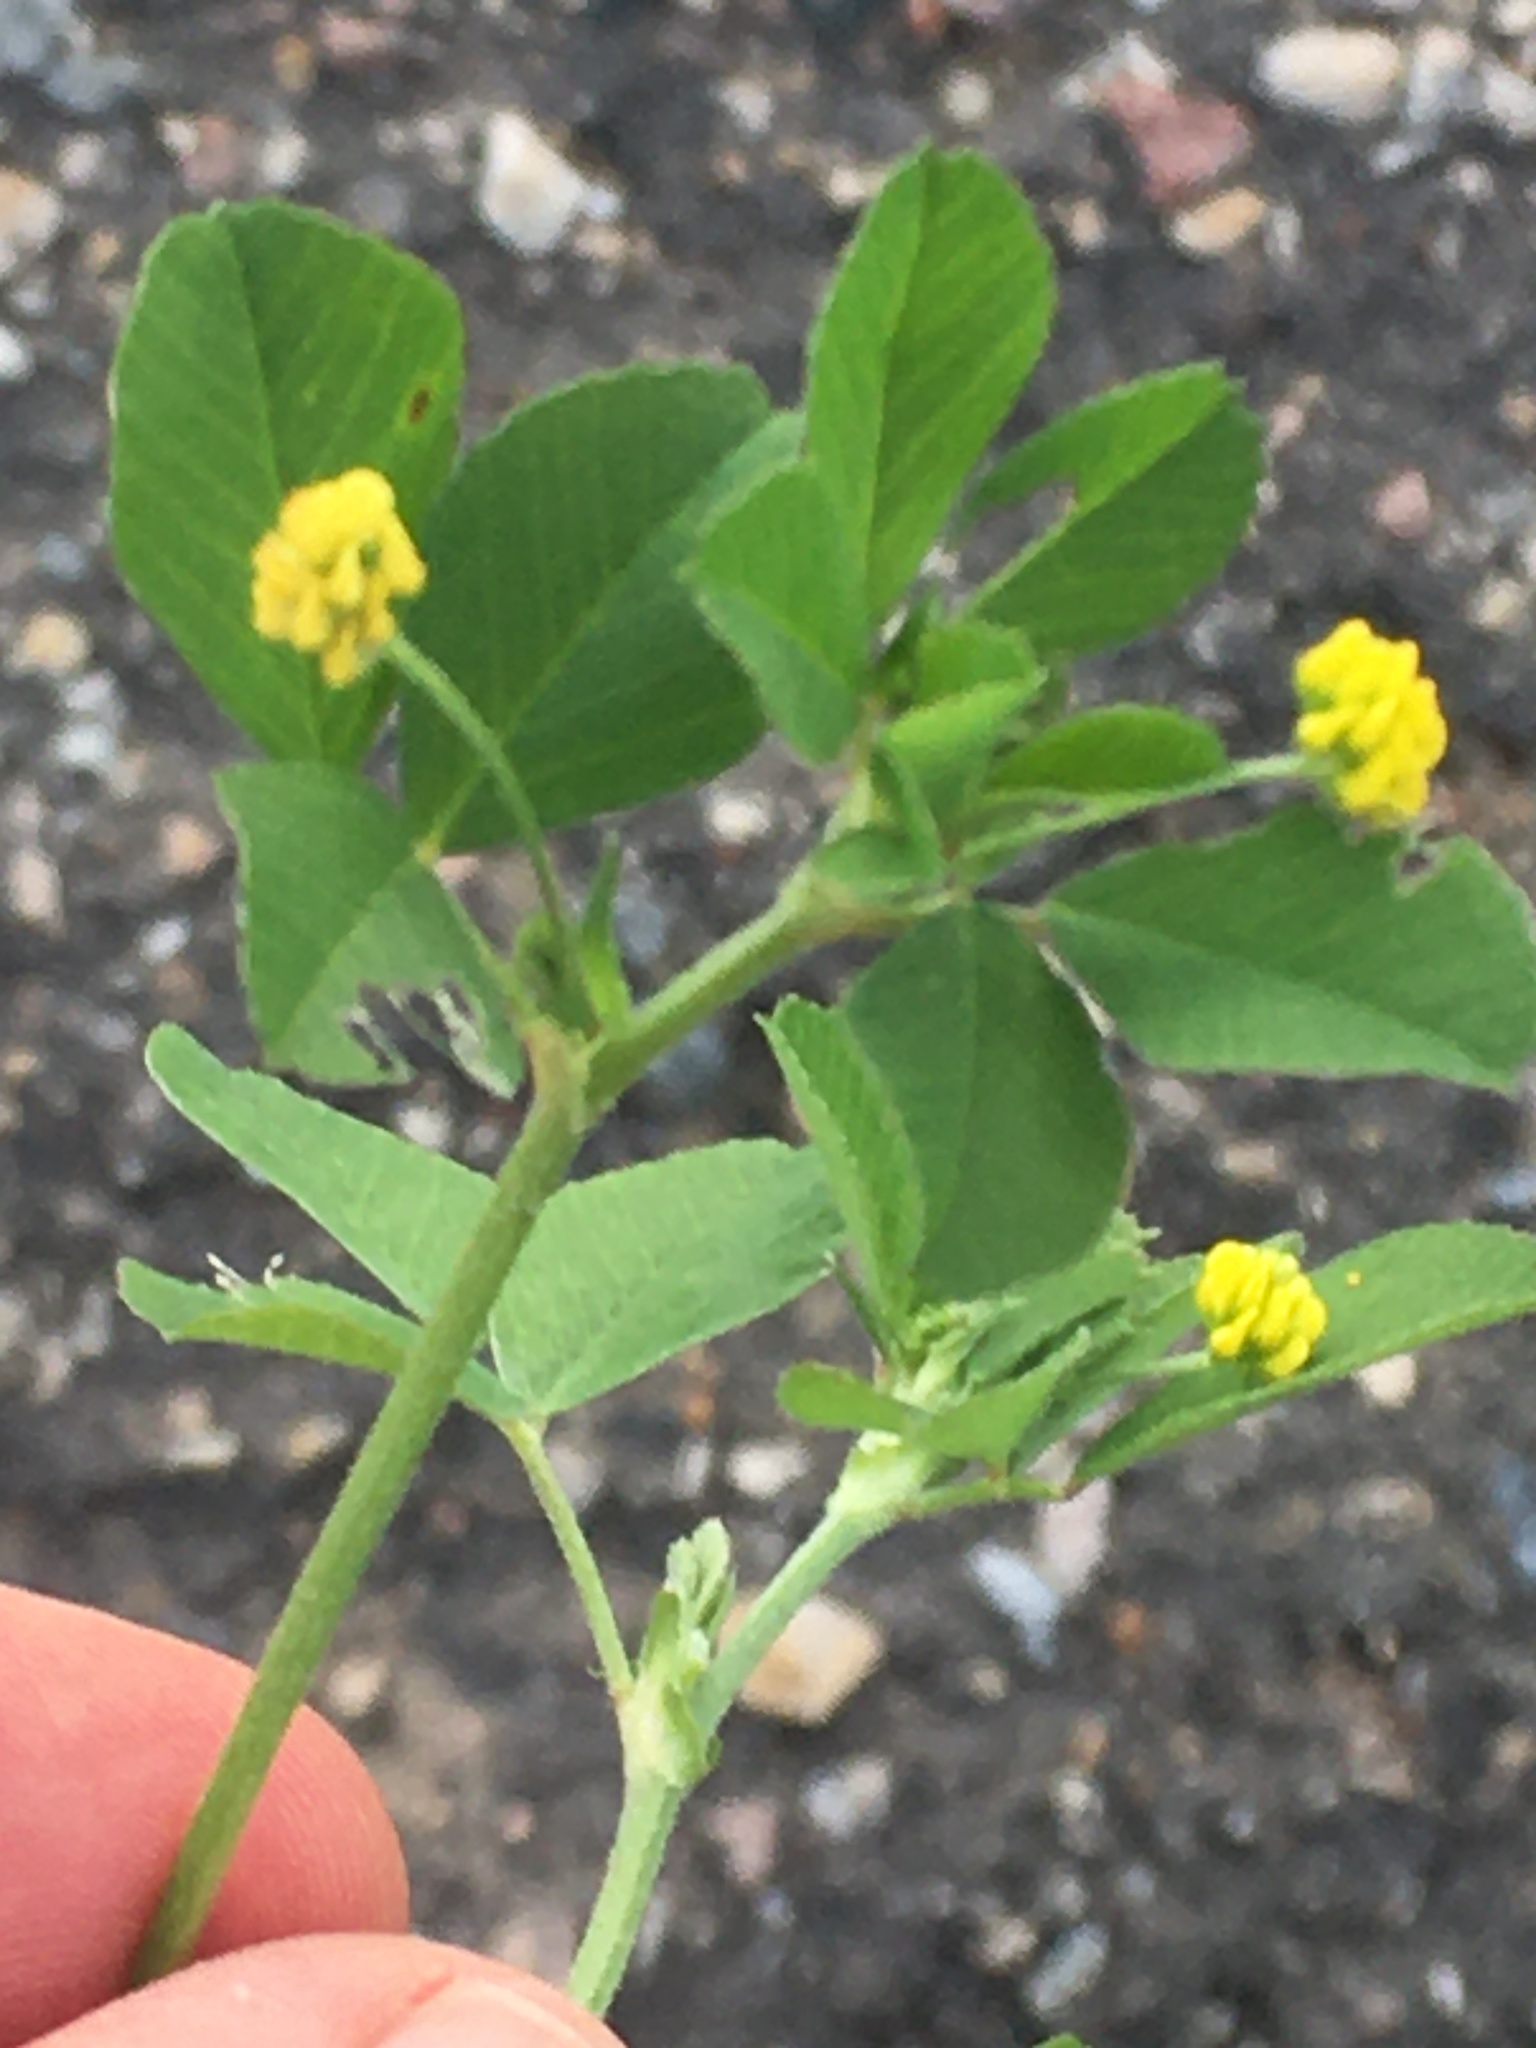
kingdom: Plantae
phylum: Tracheophyta
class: Magnoliopsida
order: Fabales
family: Fabaceae
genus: Medicago
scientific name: Medicago lupulina
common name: Black medick
